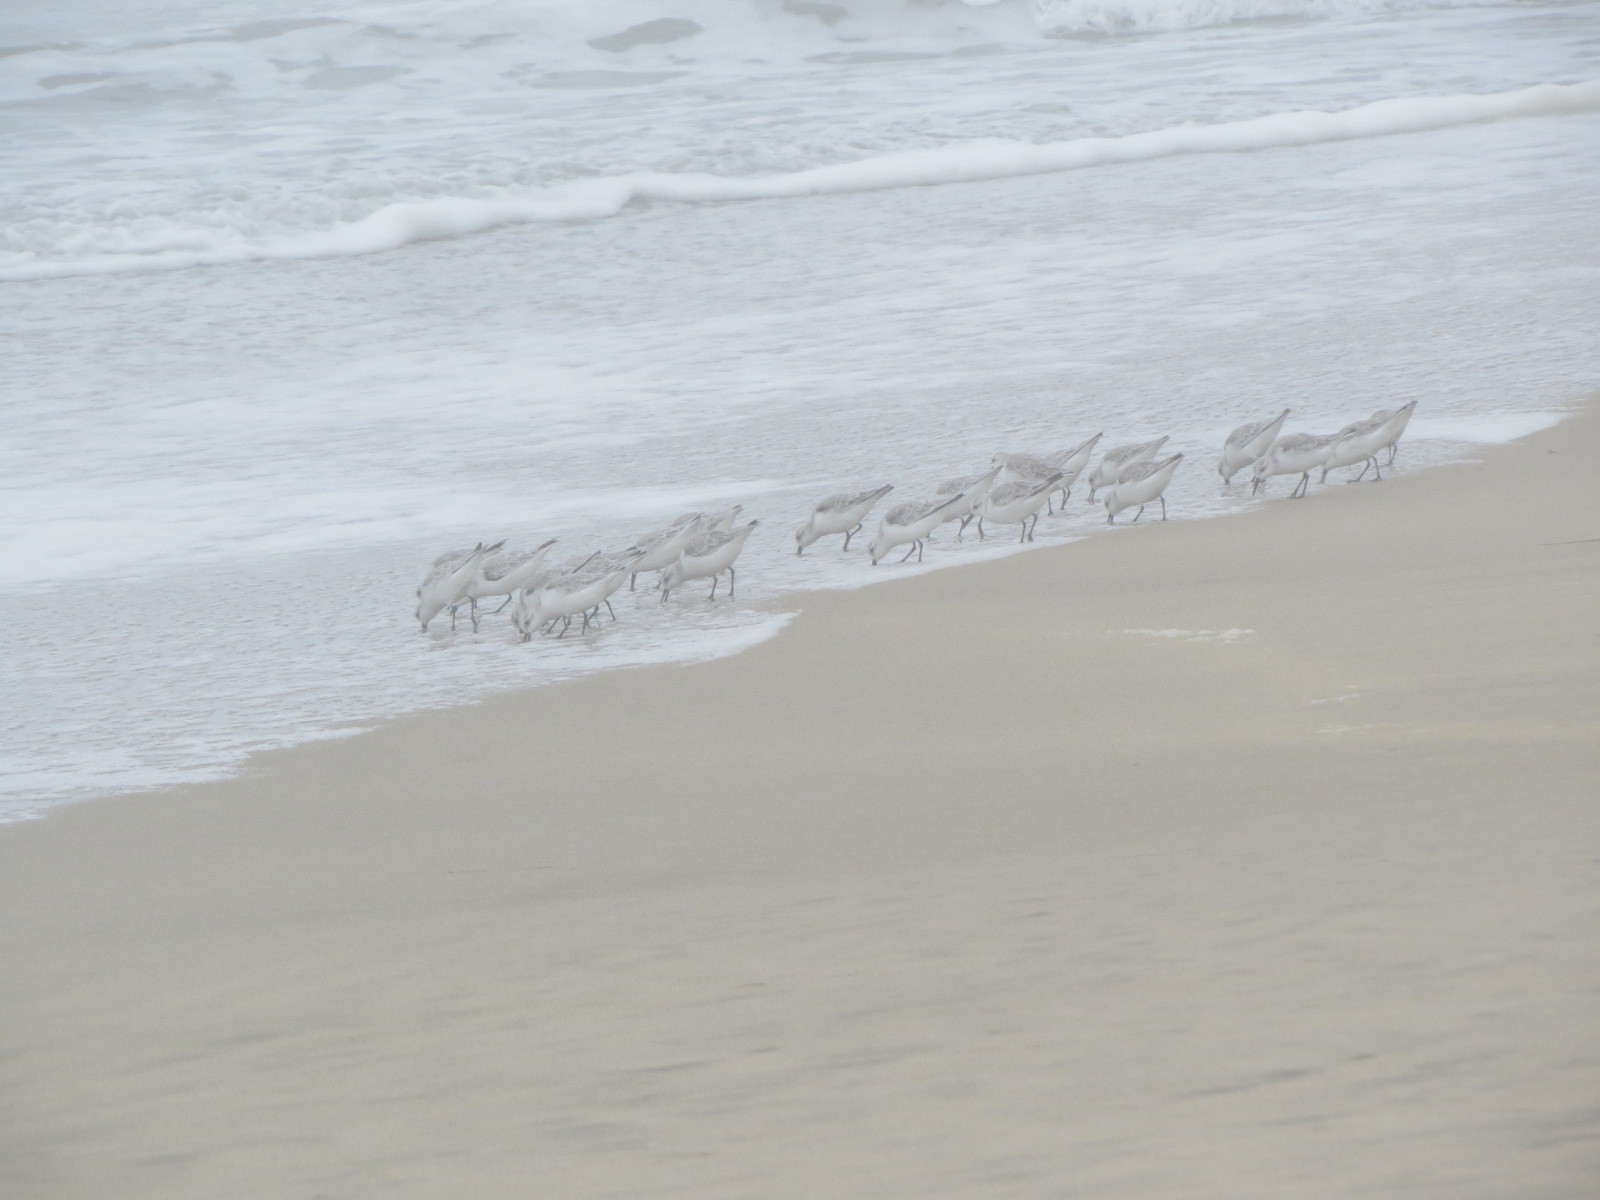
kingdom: Animalia
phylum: Chordata
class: Aves
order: Charadriiformes
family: Scolopacidae
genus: Calidris
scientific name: Calidris alba
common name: Sanderling
